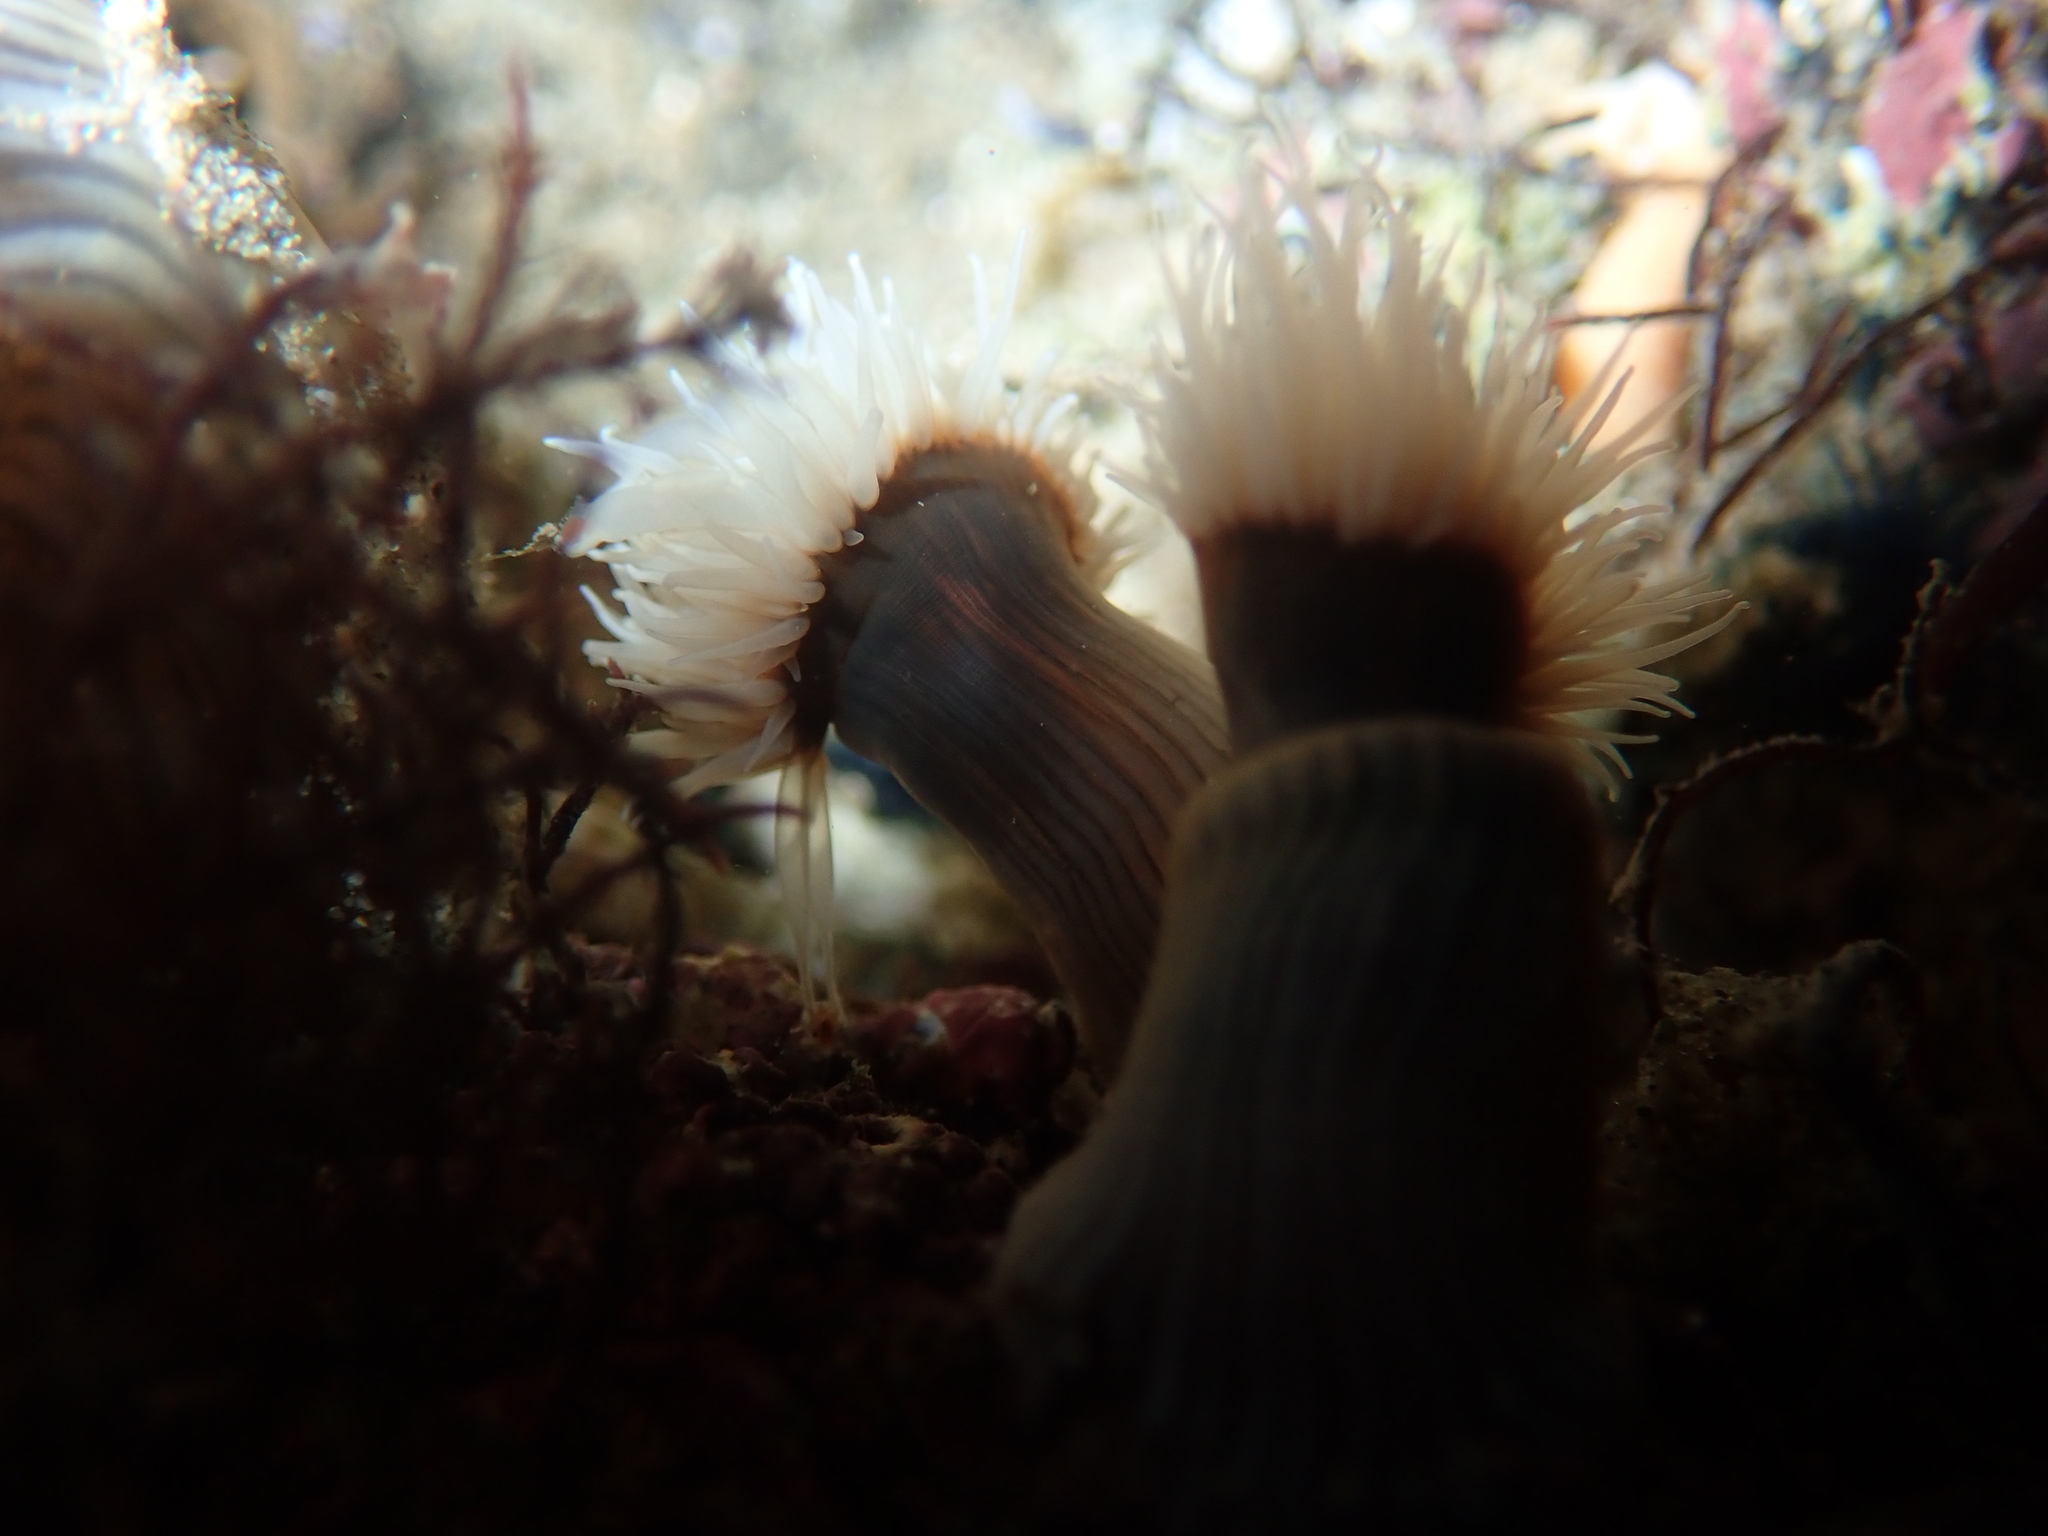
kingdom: Animalia
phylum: Cnidaria
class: Anthozoa
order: Actiniaria
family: Diadumenidae
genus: Diadumene
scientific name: Diadumene neozelanica
